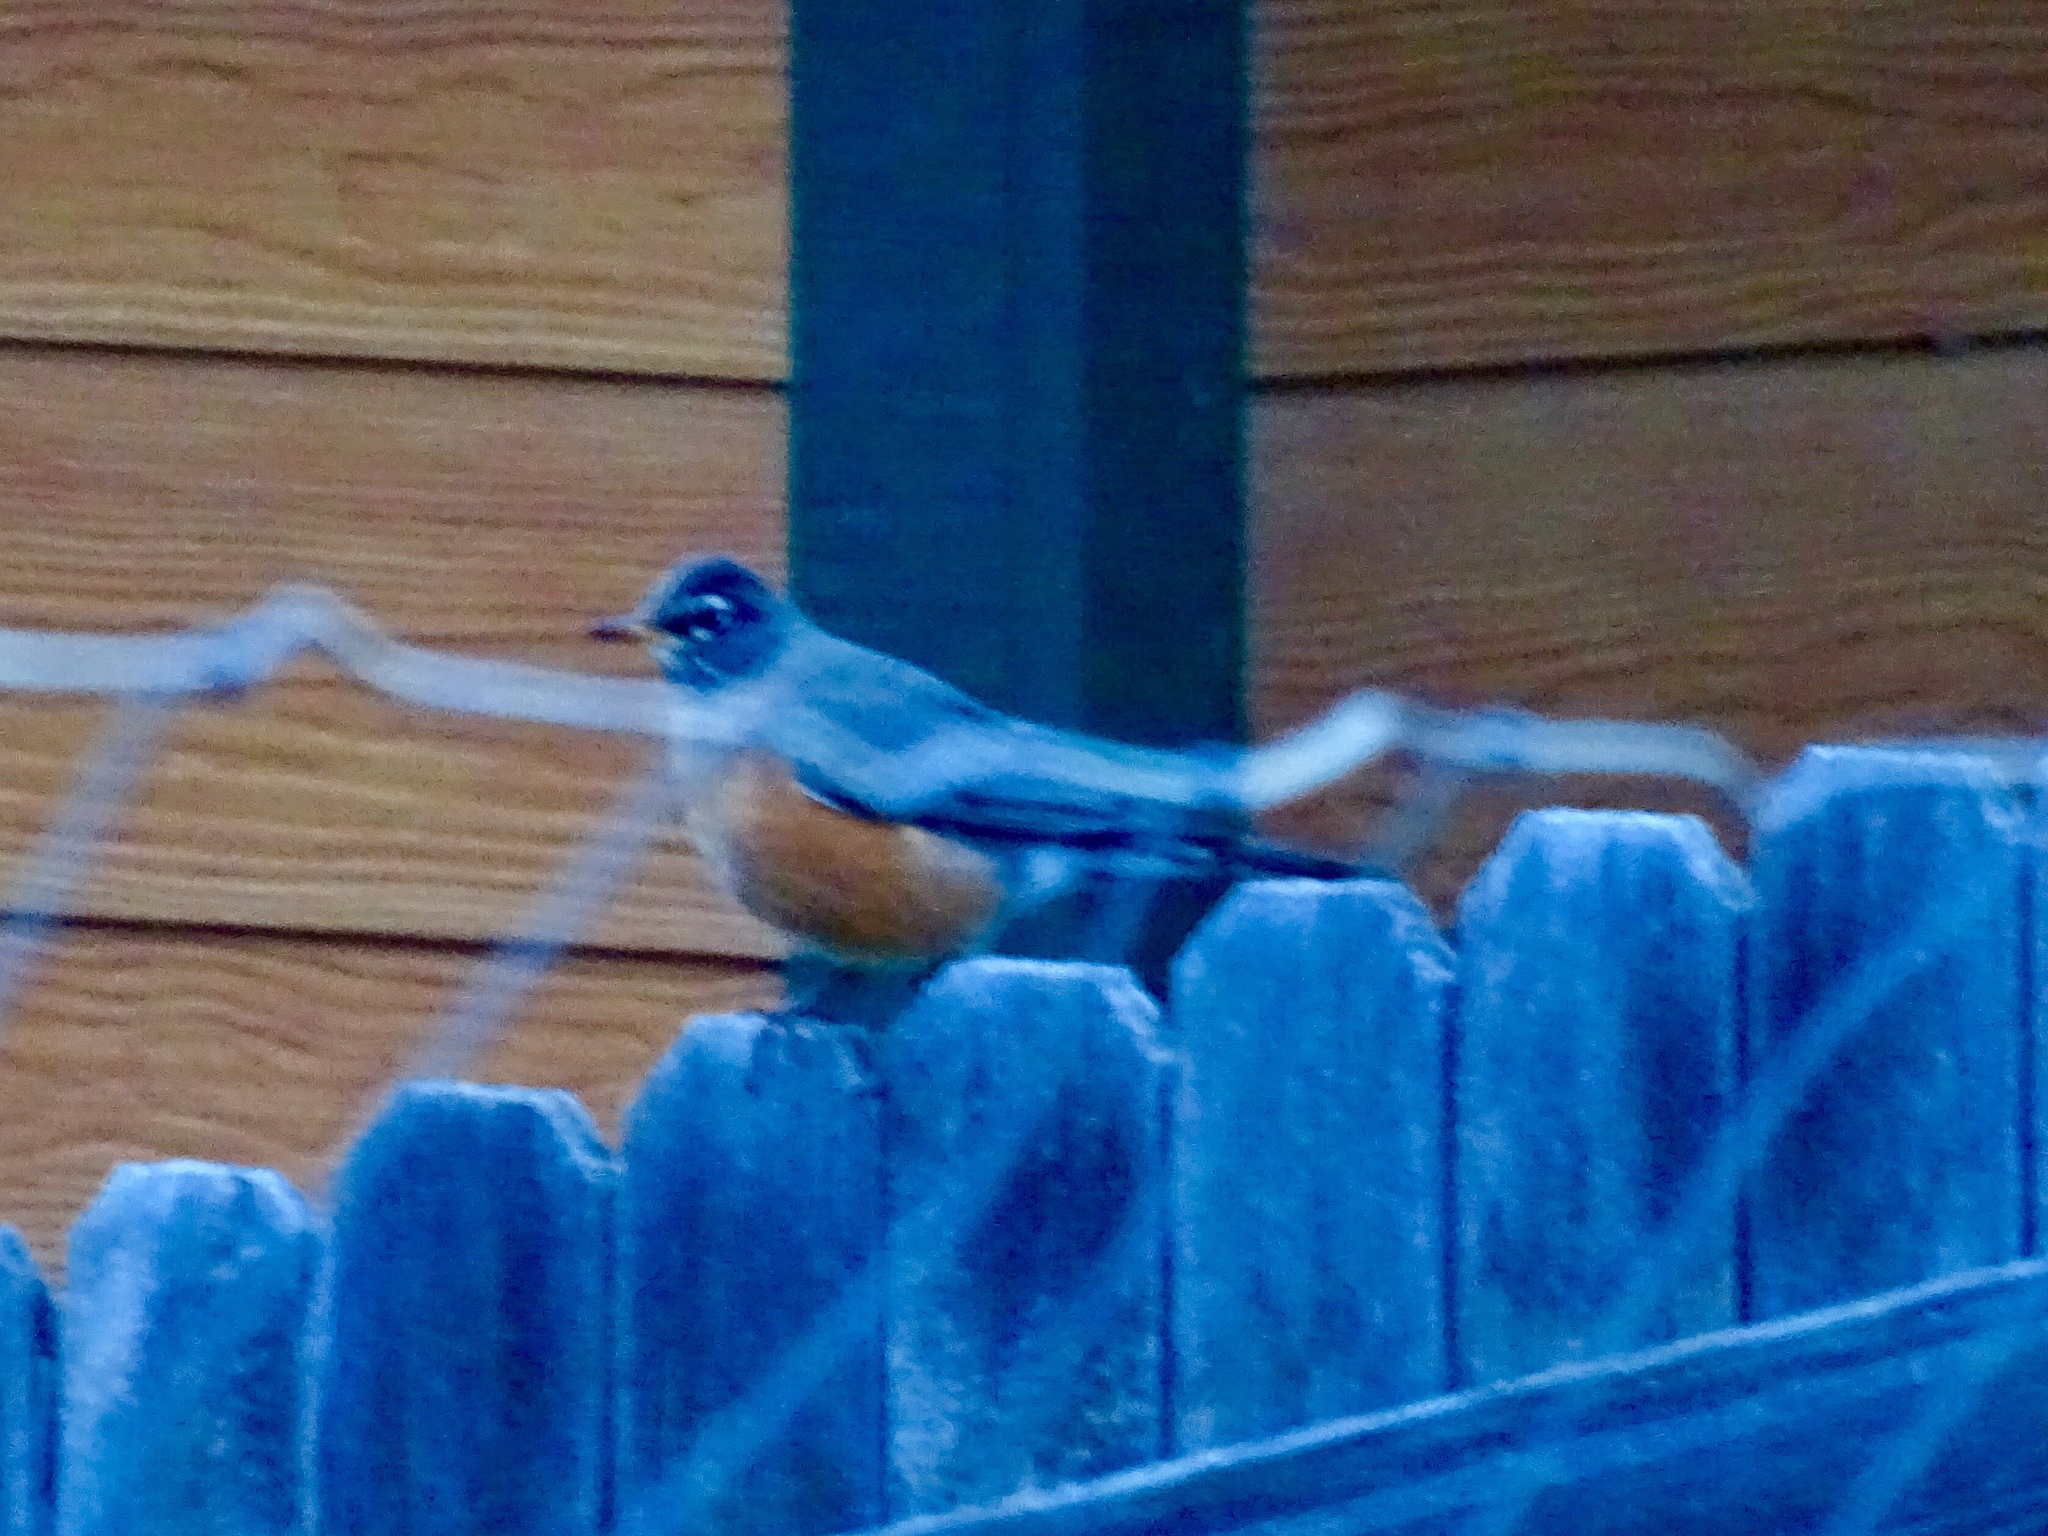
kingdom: Animalia
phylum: Chordata
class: Aves
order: Passeriformes
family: Turdidae
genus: Turdus
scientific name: Turdus migratorius
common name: American robin
